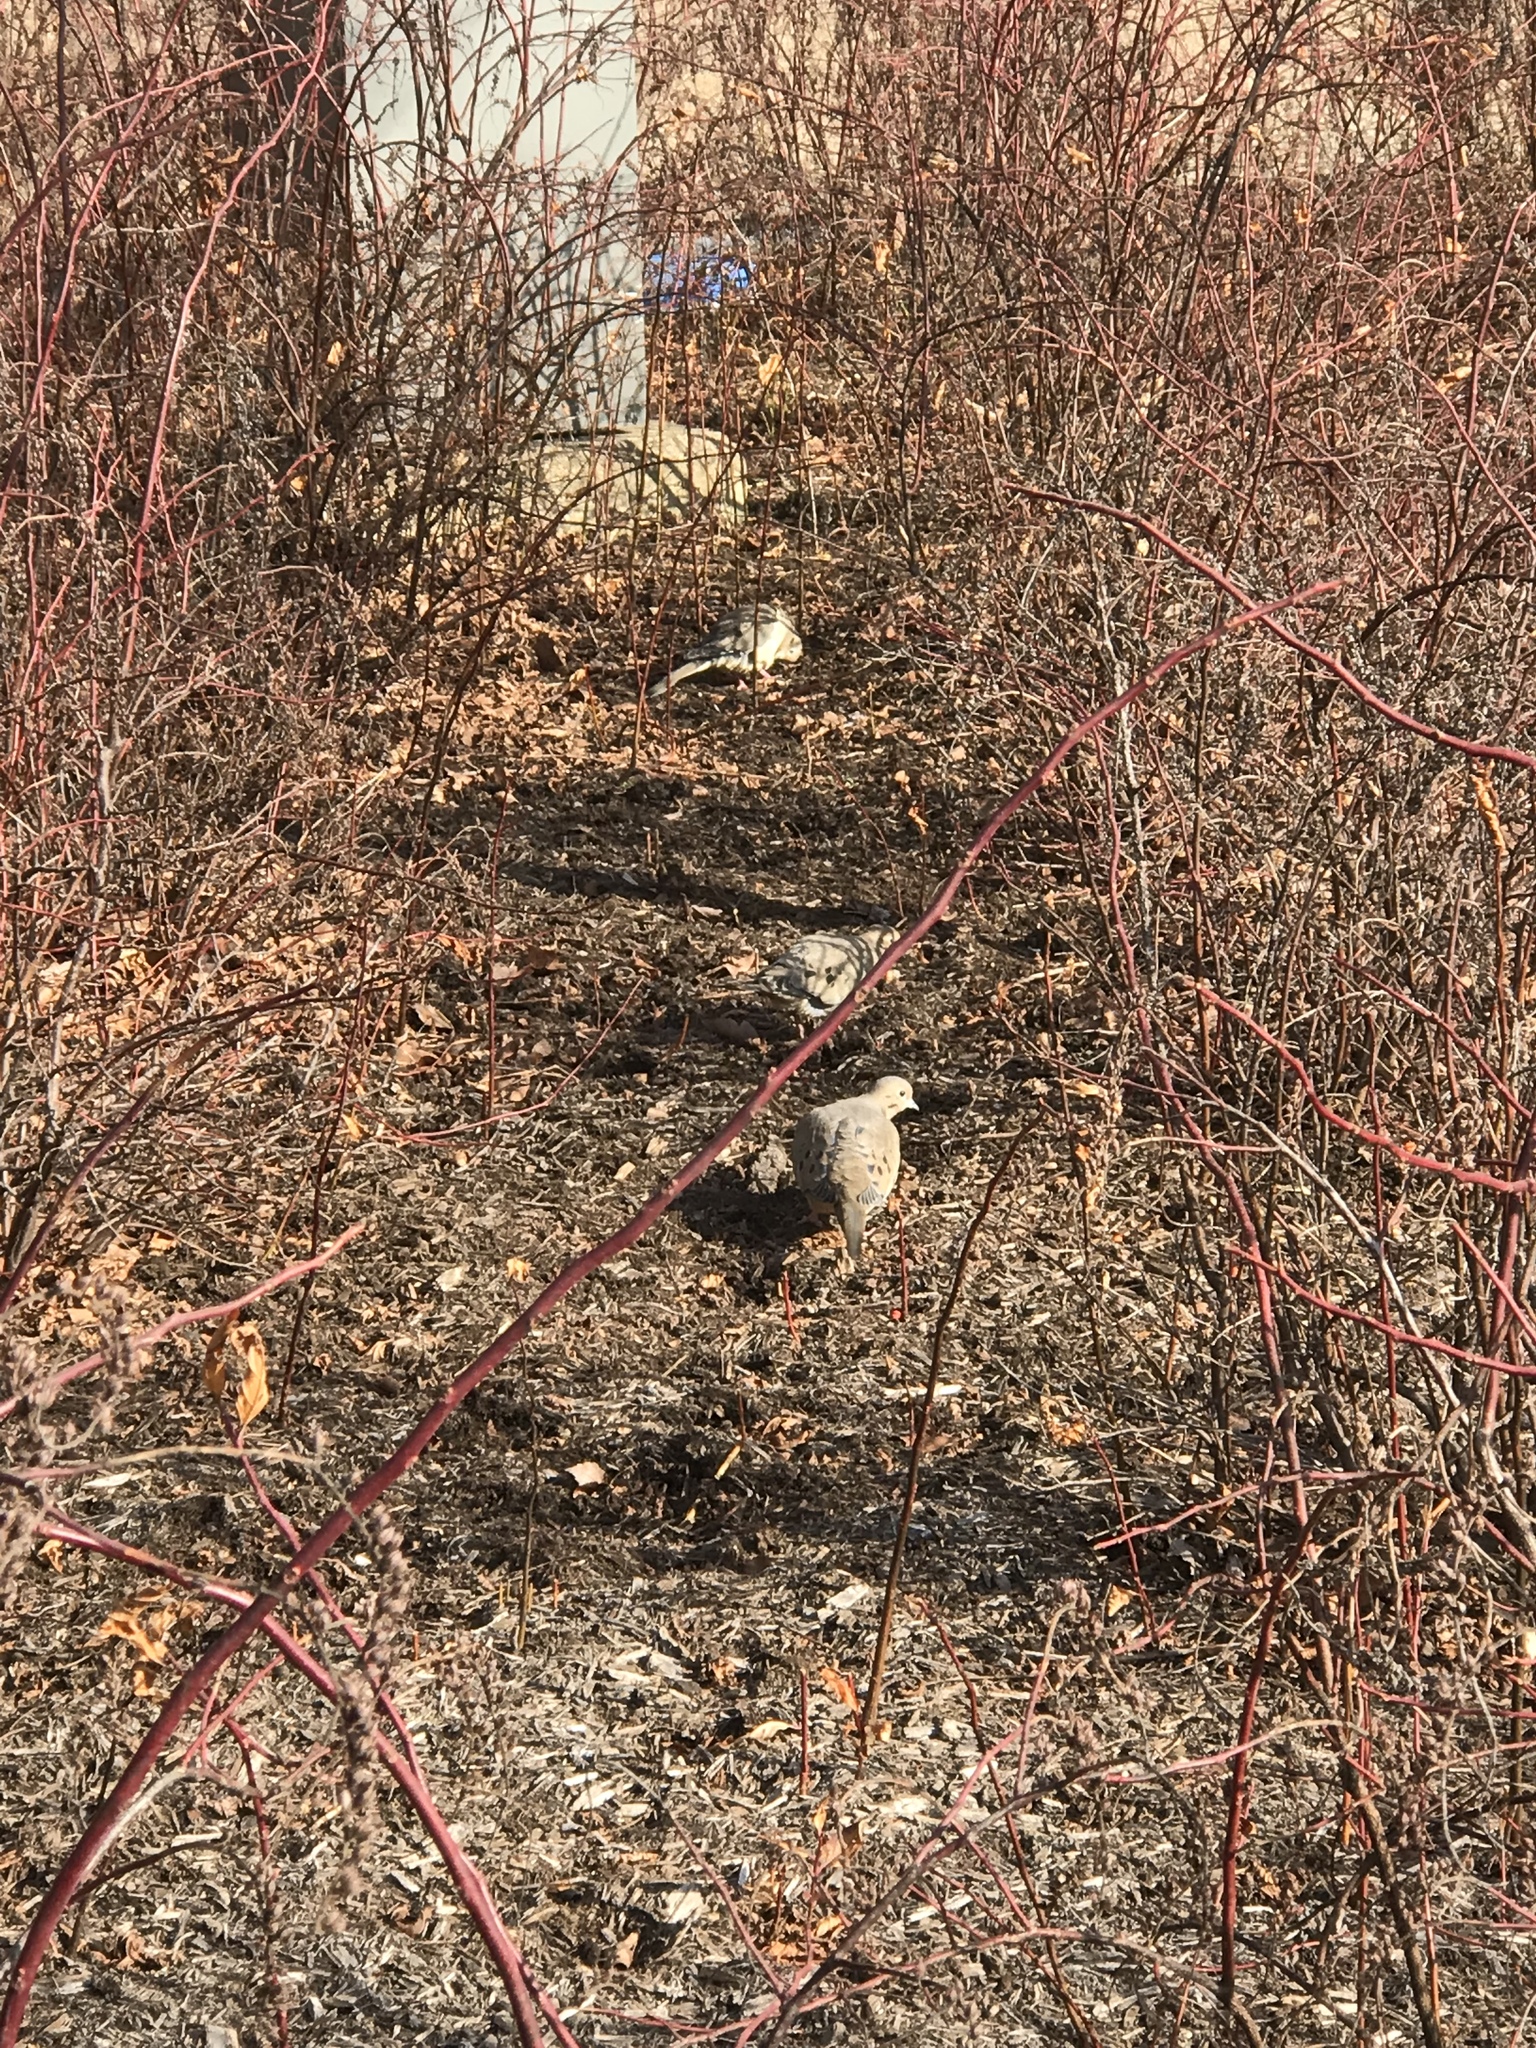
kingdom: Animalia
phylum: Chordata
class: Aves
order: Columbiformes
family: Columbidae
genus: Zenaida
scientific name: Zenaida macroura
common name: Mourning dove
